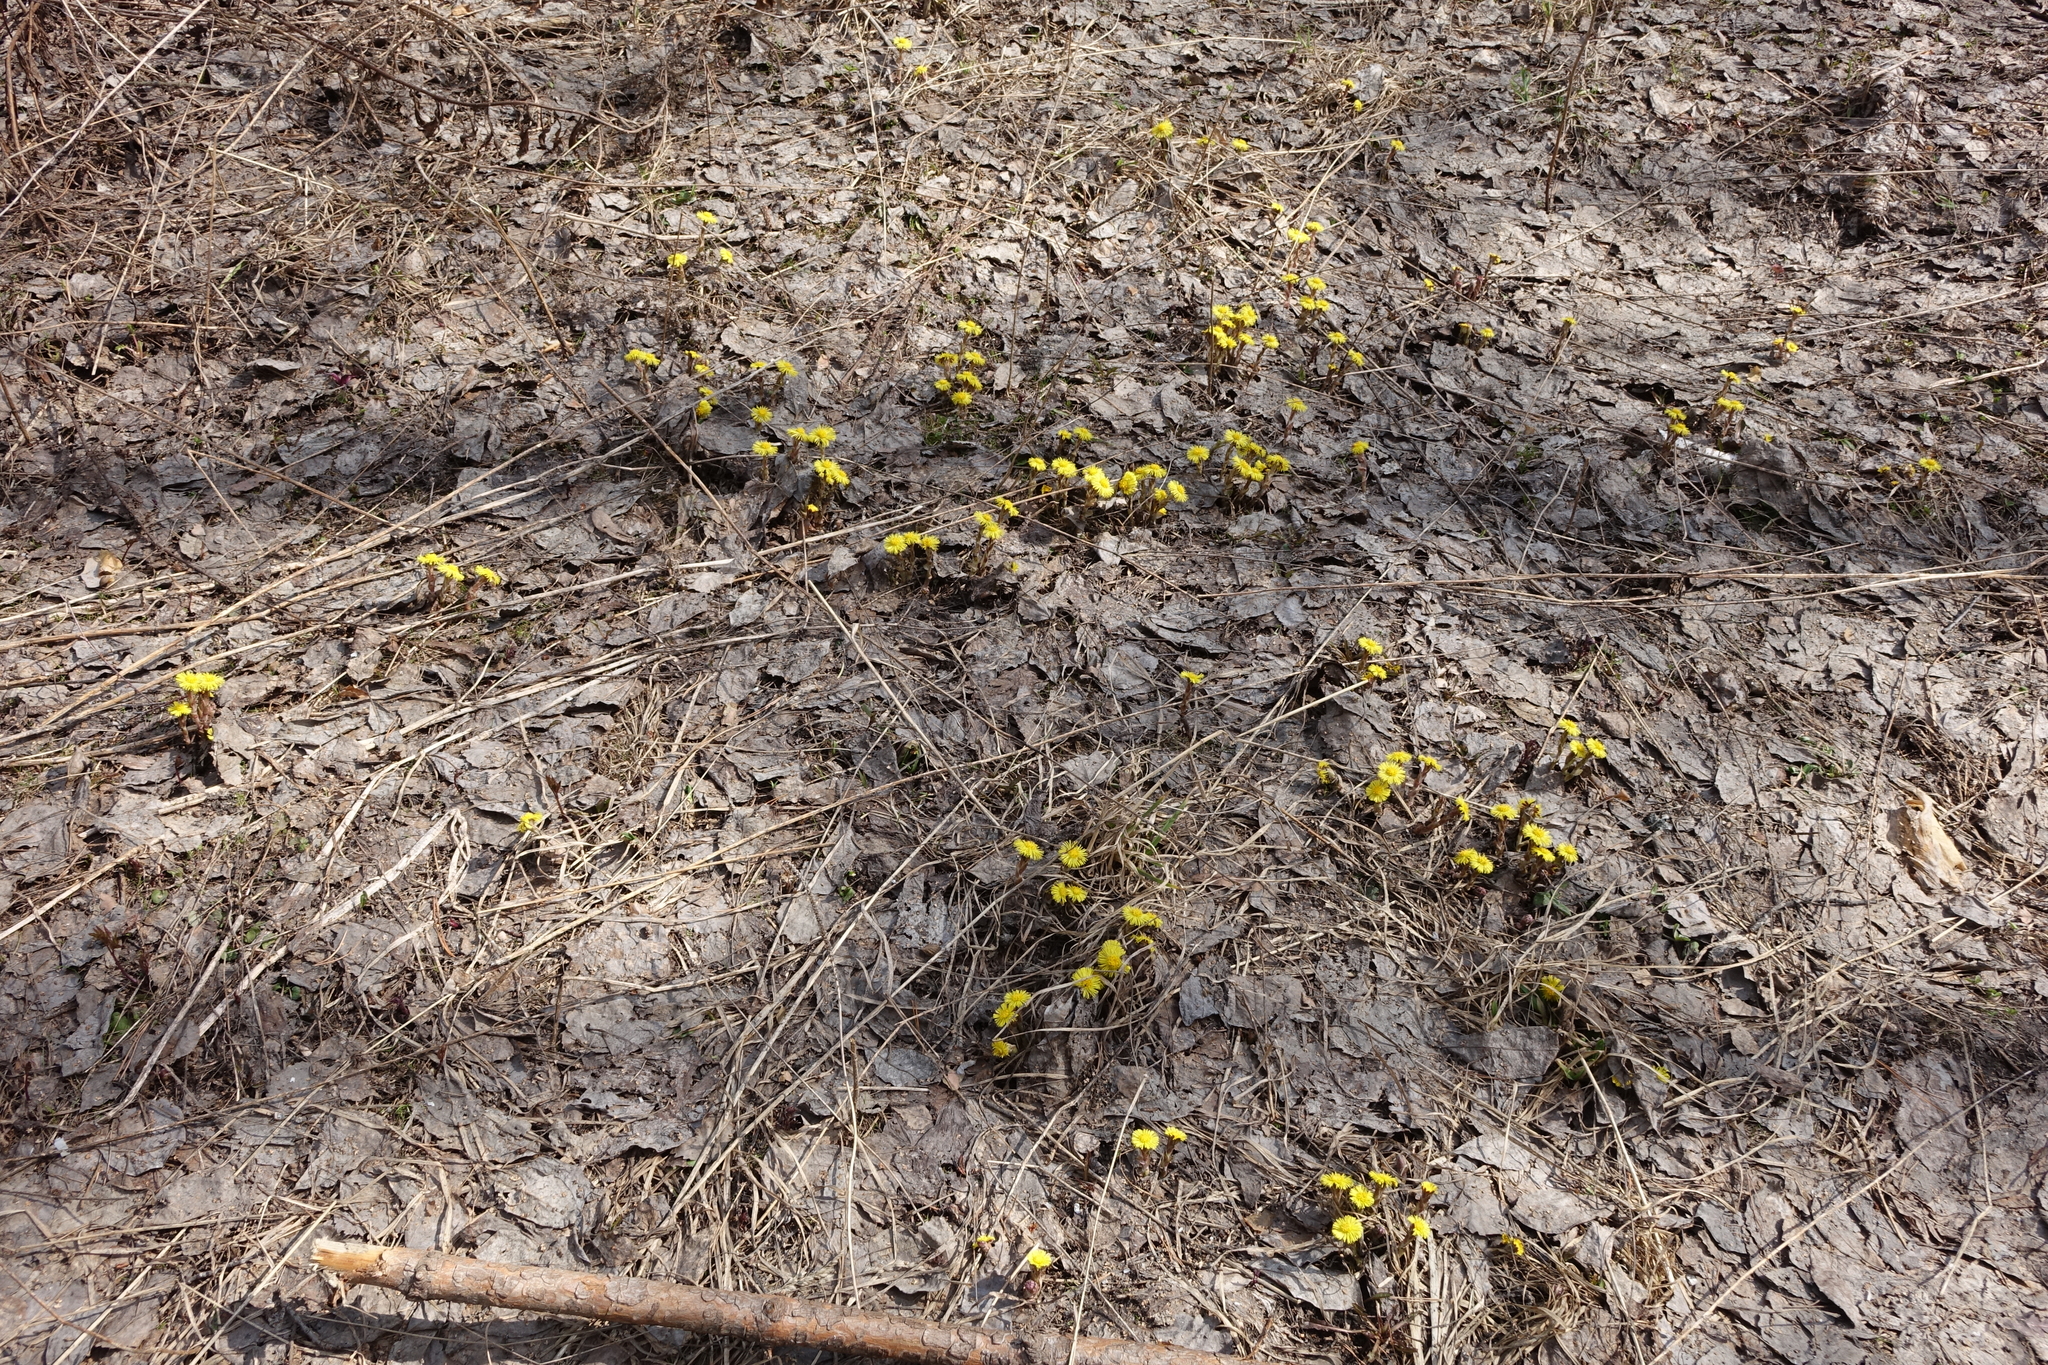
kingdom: Plantae
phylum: Tracheophyta
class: Magnoliopsida
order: Asterales
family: Asteraceae
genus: Tussilago
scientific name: Tussilago farfara
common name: Coltsfoot
